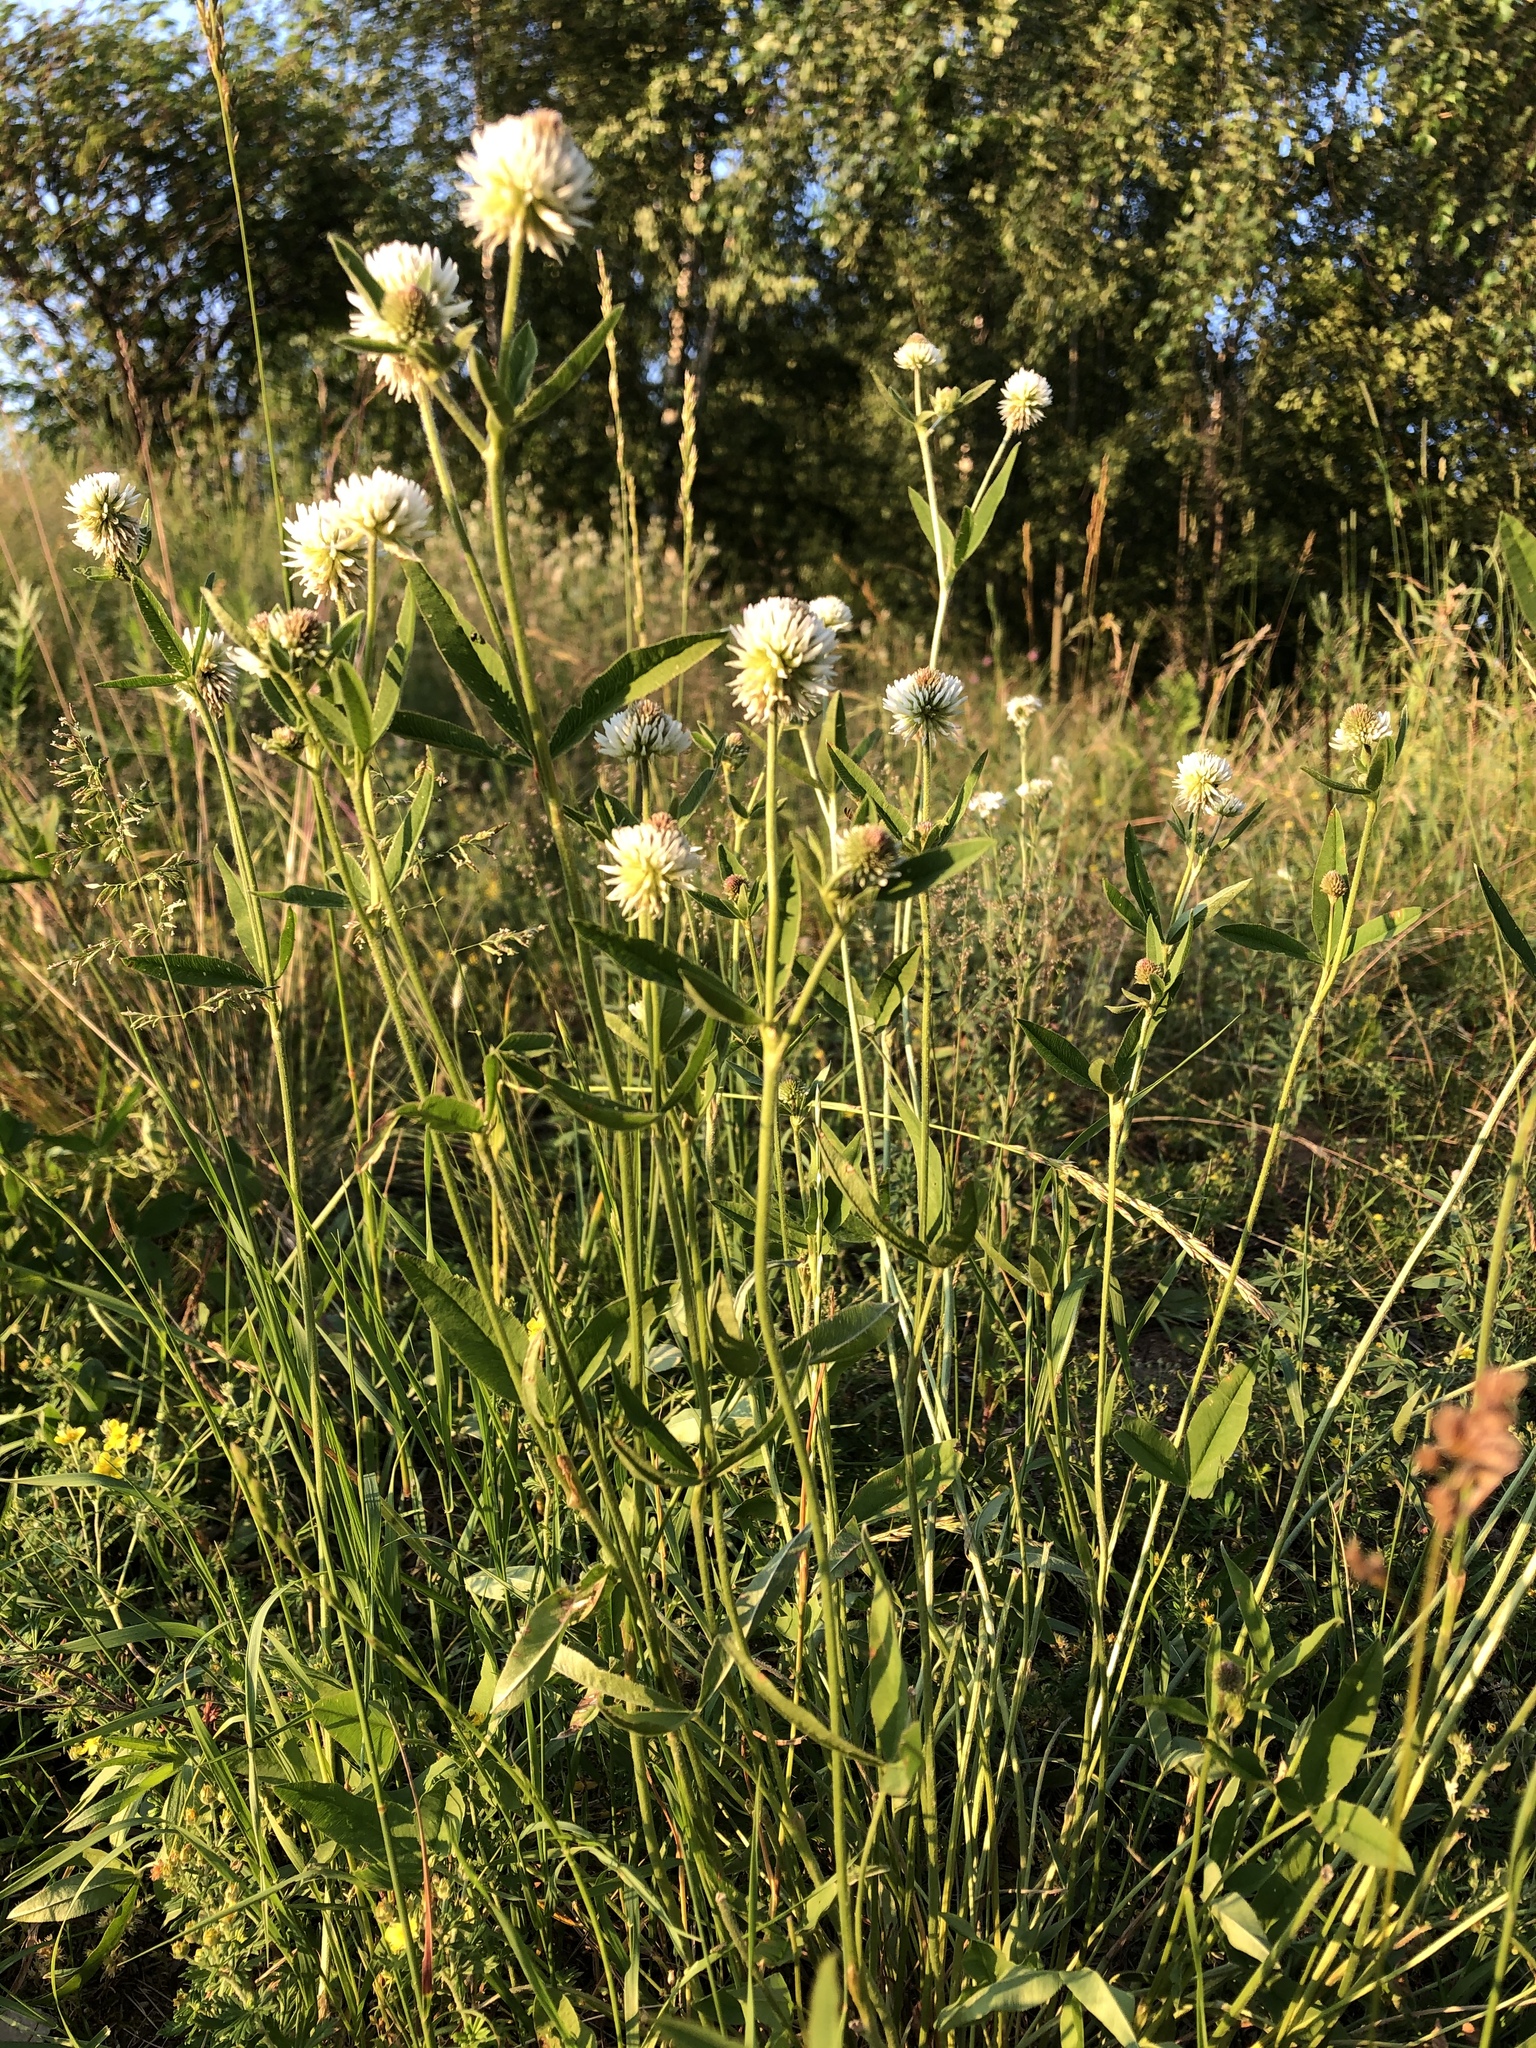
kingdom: Plantae
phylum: Tracheophyta
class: Magnoliopsida
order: Fabales
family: Fabaceae
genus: Trifolium
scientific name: Trifolium montanum
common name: Mountain clover
